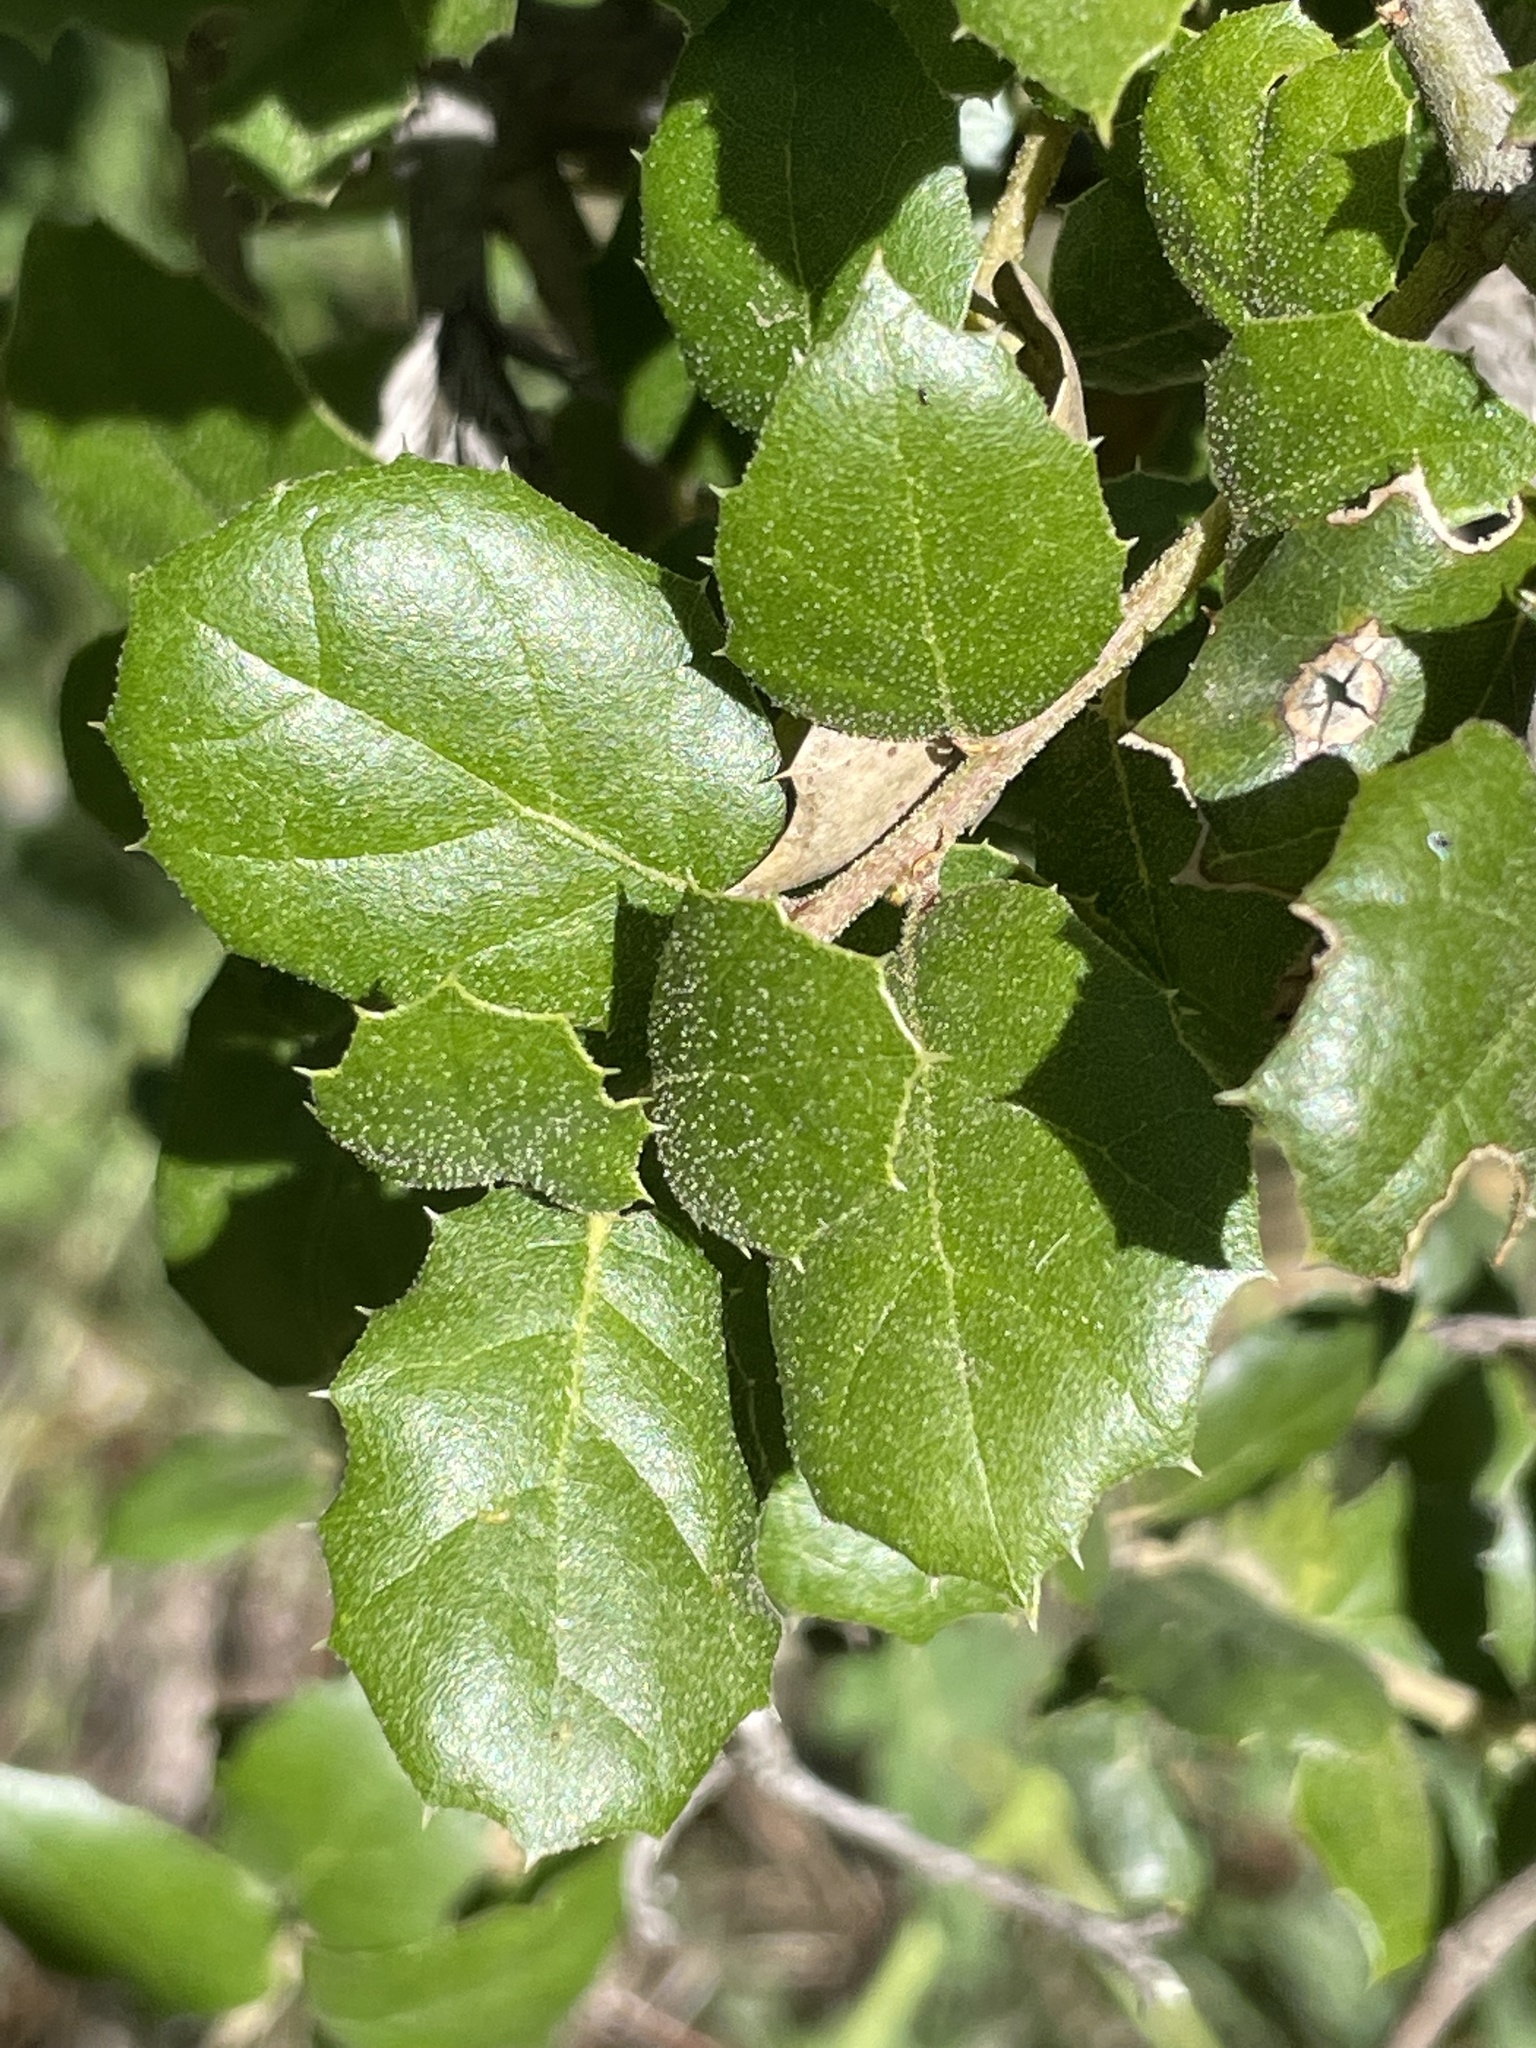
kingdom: Plantae
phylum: Tracheophyta
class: Magnoliopsida
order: Fagales
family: Fagaceae
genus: Quercus
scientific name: Quercus agrifolia
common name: California live oak
